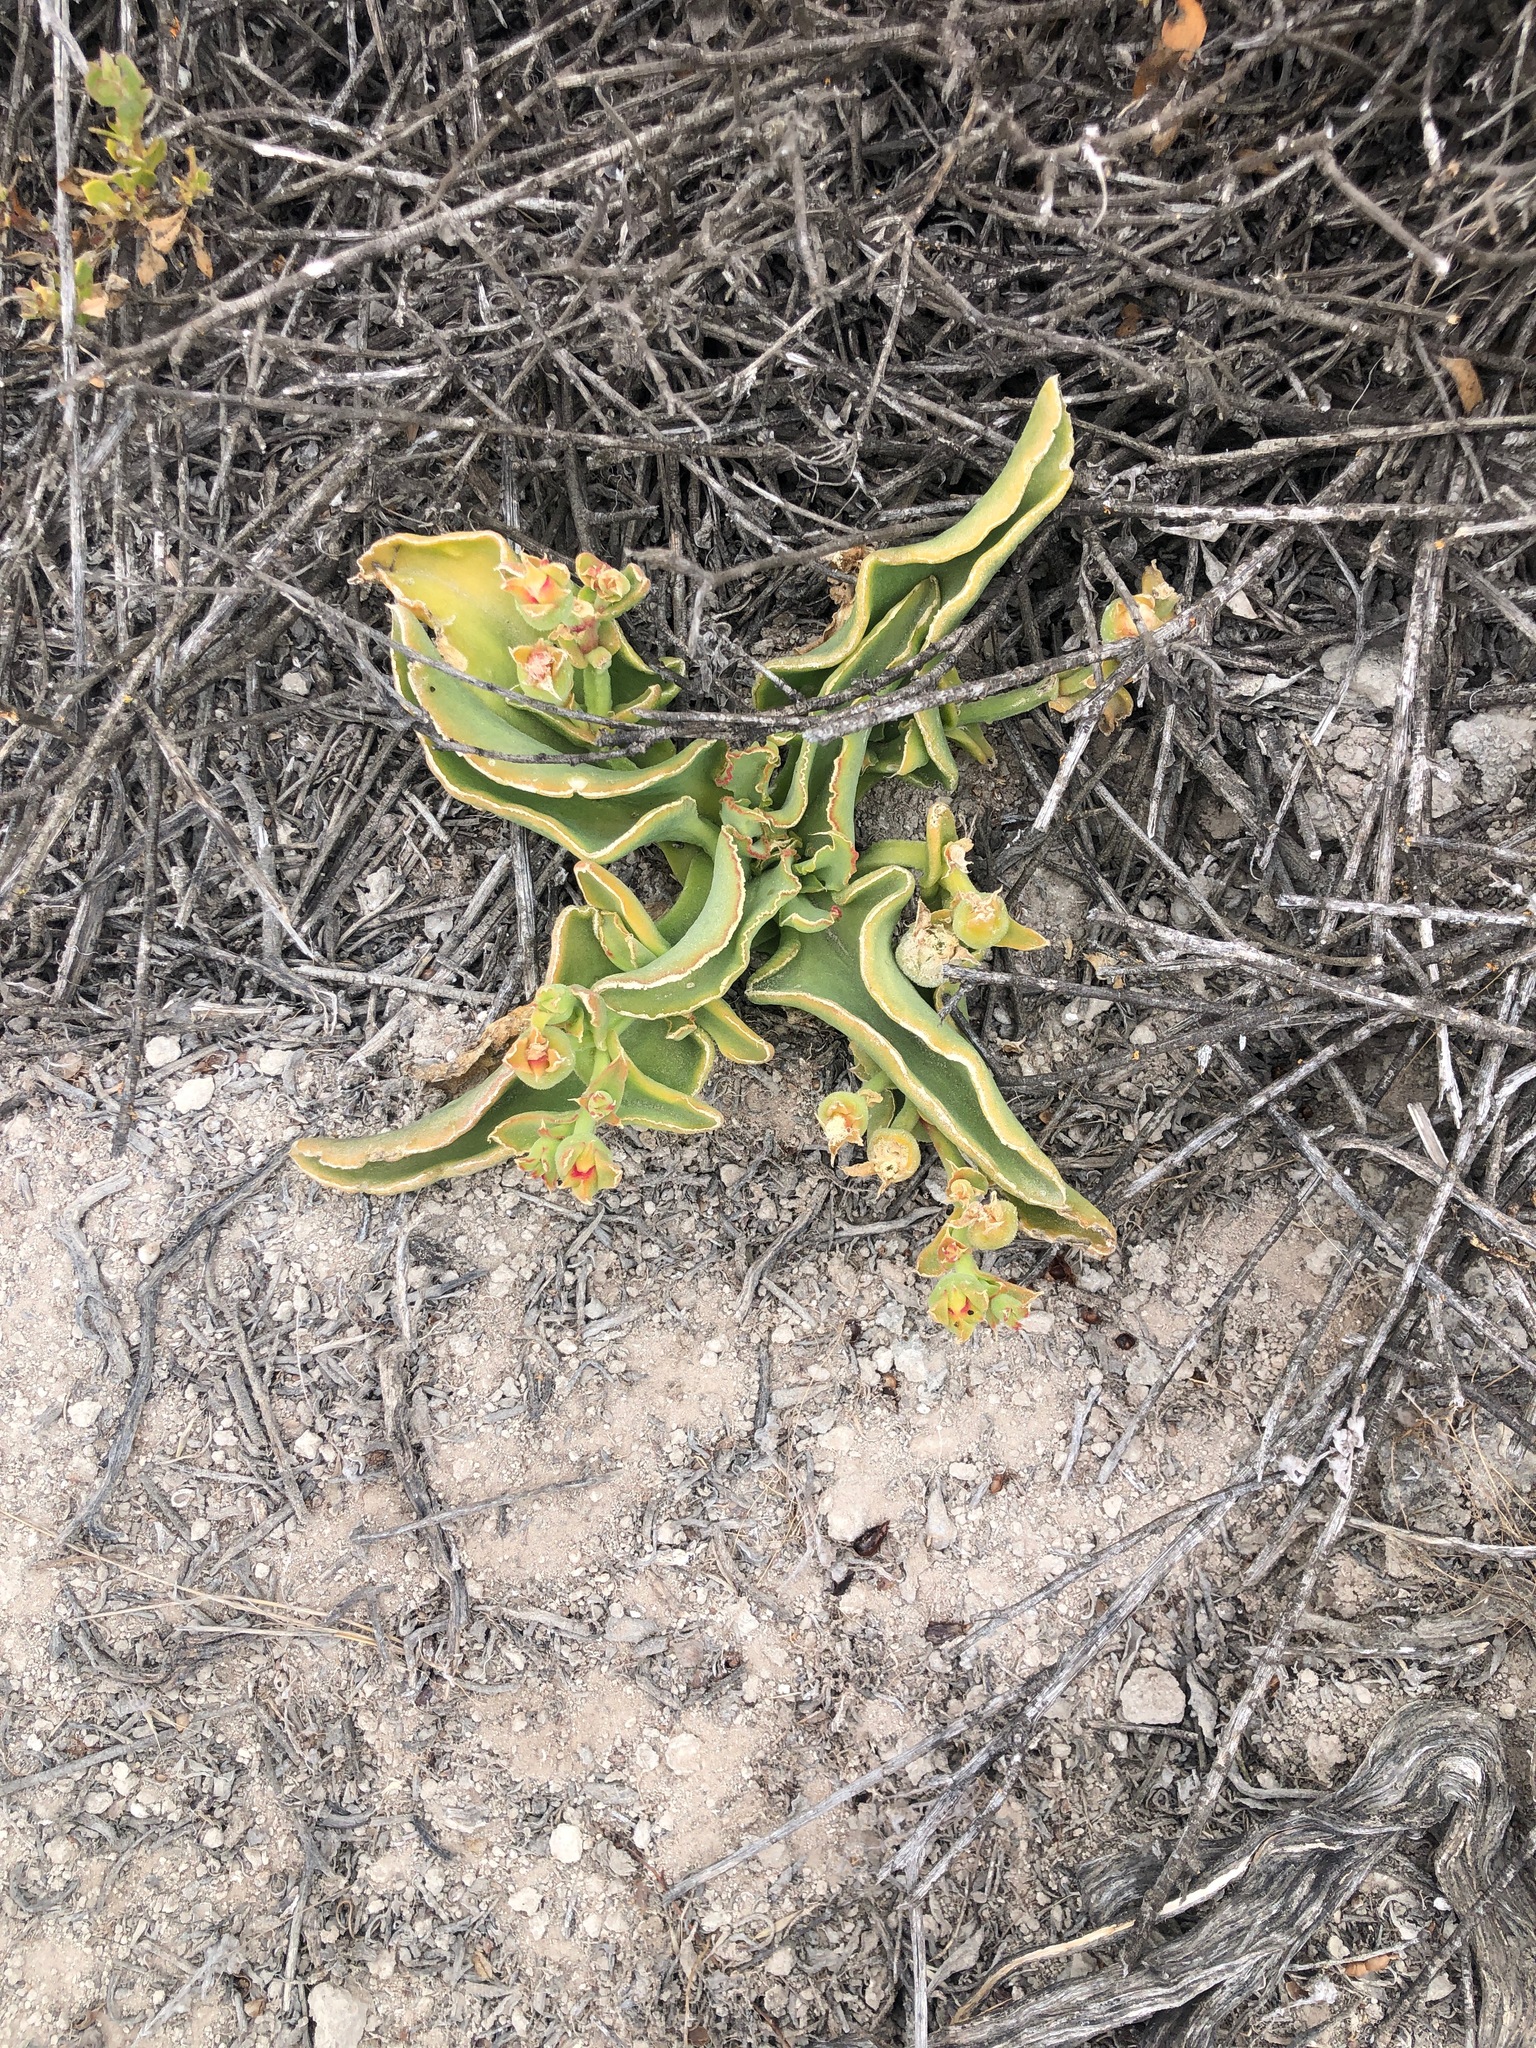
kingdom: Plantae
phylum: Tracheophyta
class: Magnoliopsida
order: Caryophyllales
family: Aizoaceae
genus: Mesembryanthemum
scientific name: Mesembryanthemum guerichianum
